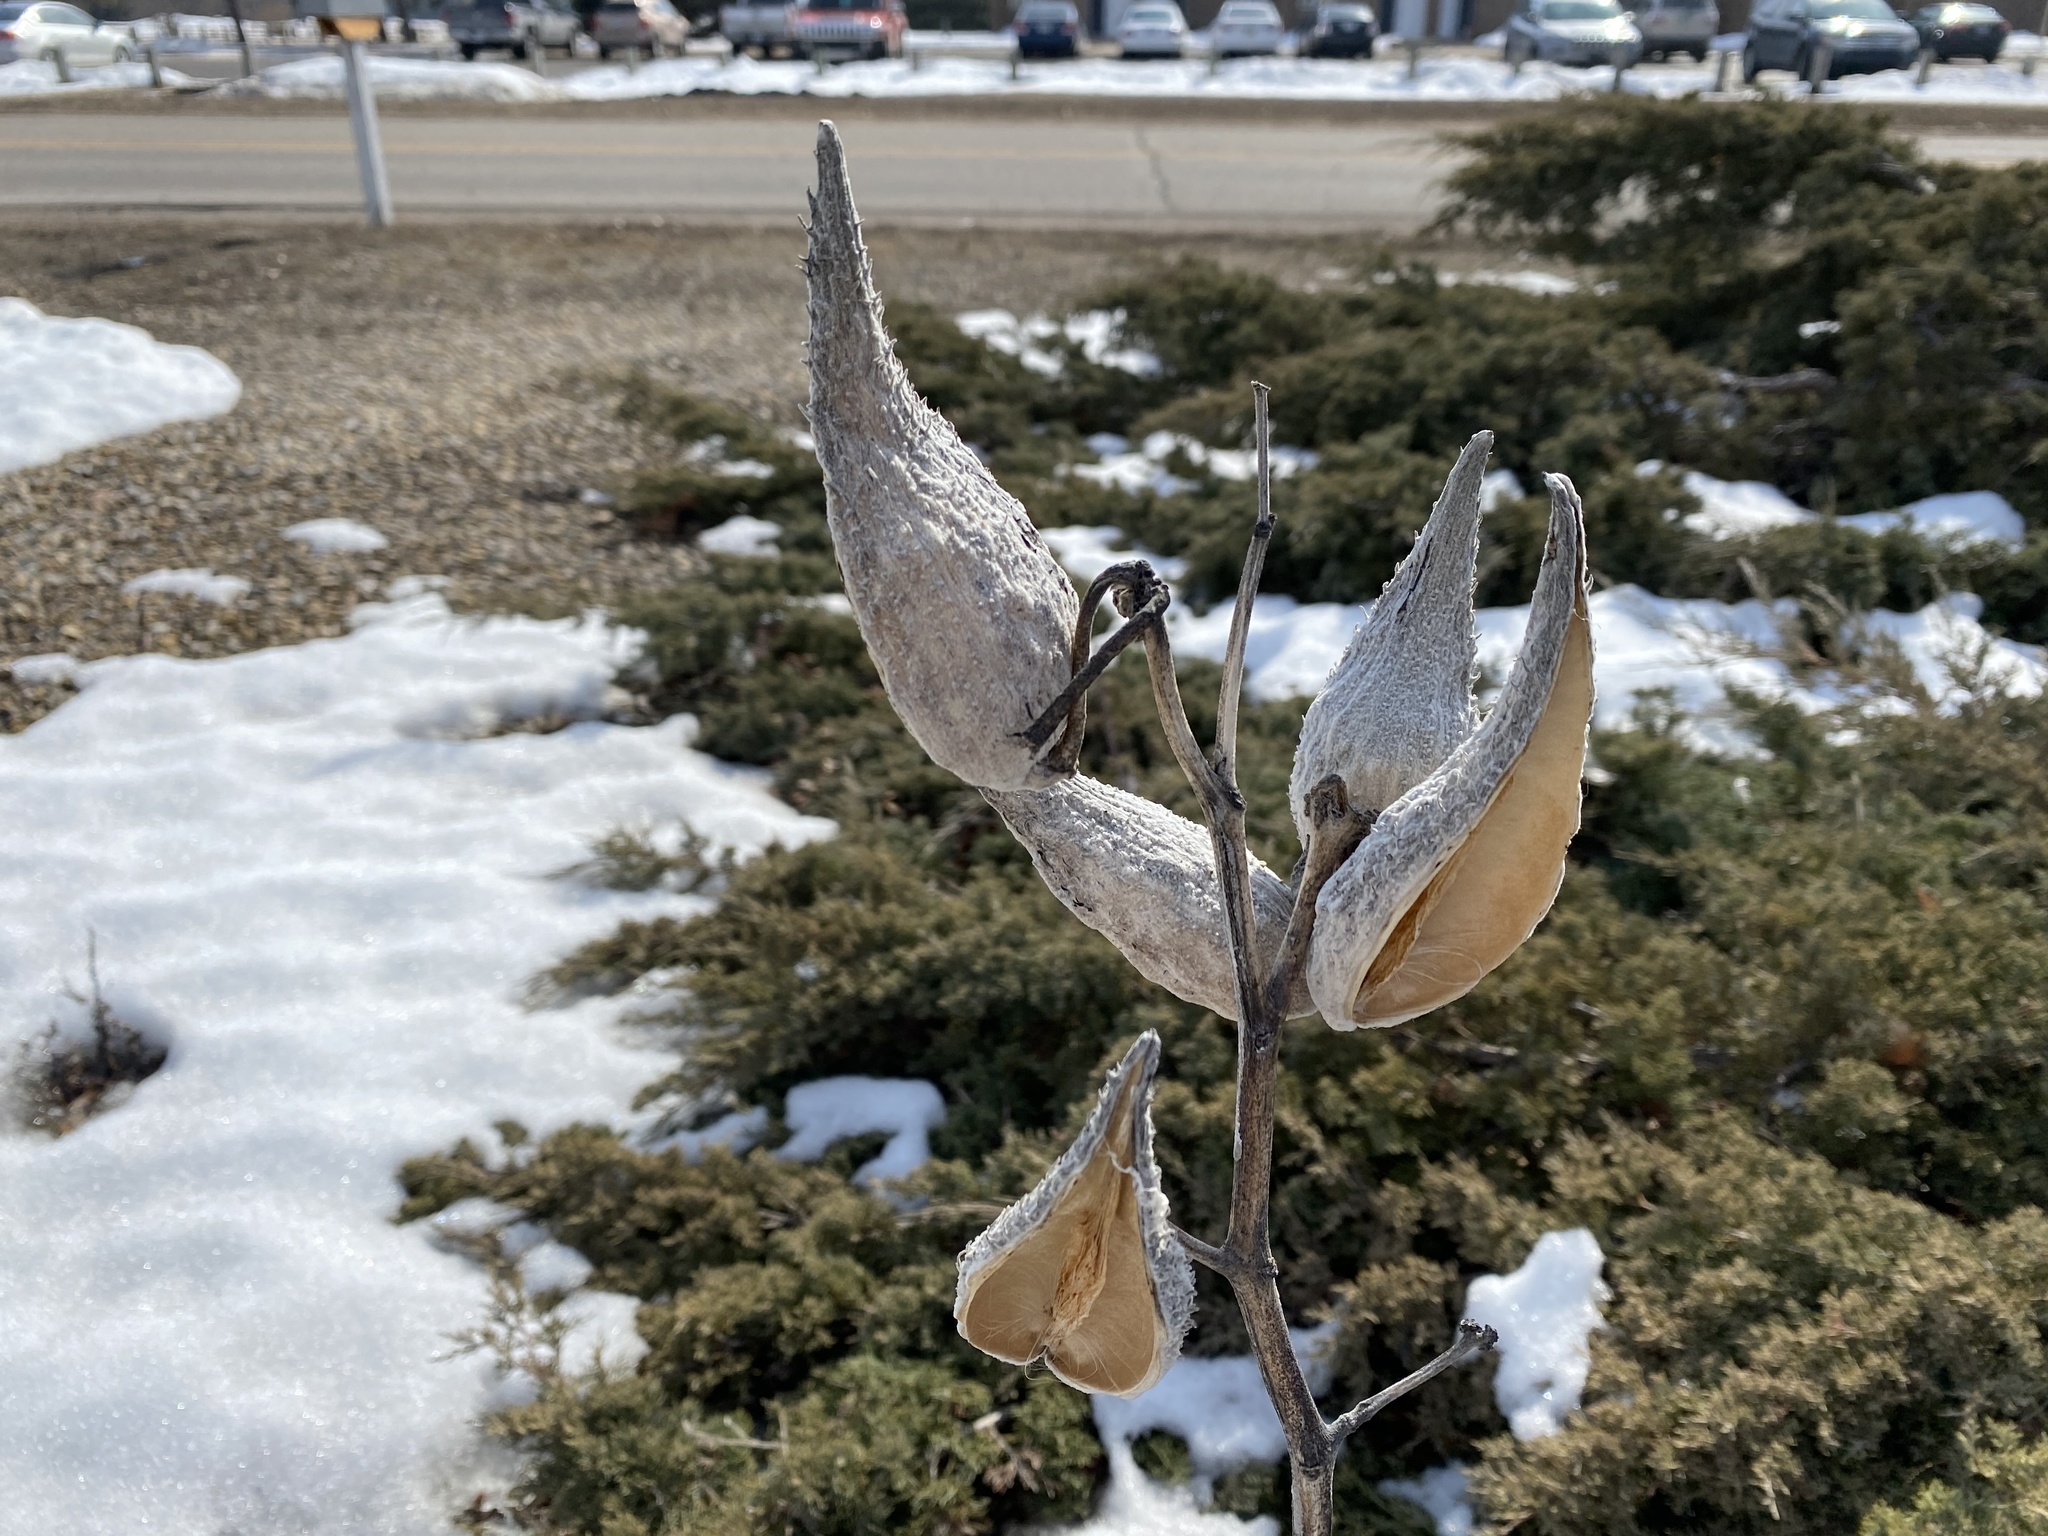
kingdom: Plantae
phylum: Tracheophyta
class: Magnoliopsida
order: Gentianales
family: Apocynaceae
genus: Asclepias
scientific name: Asclepias syriaca
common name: Common milkweed
